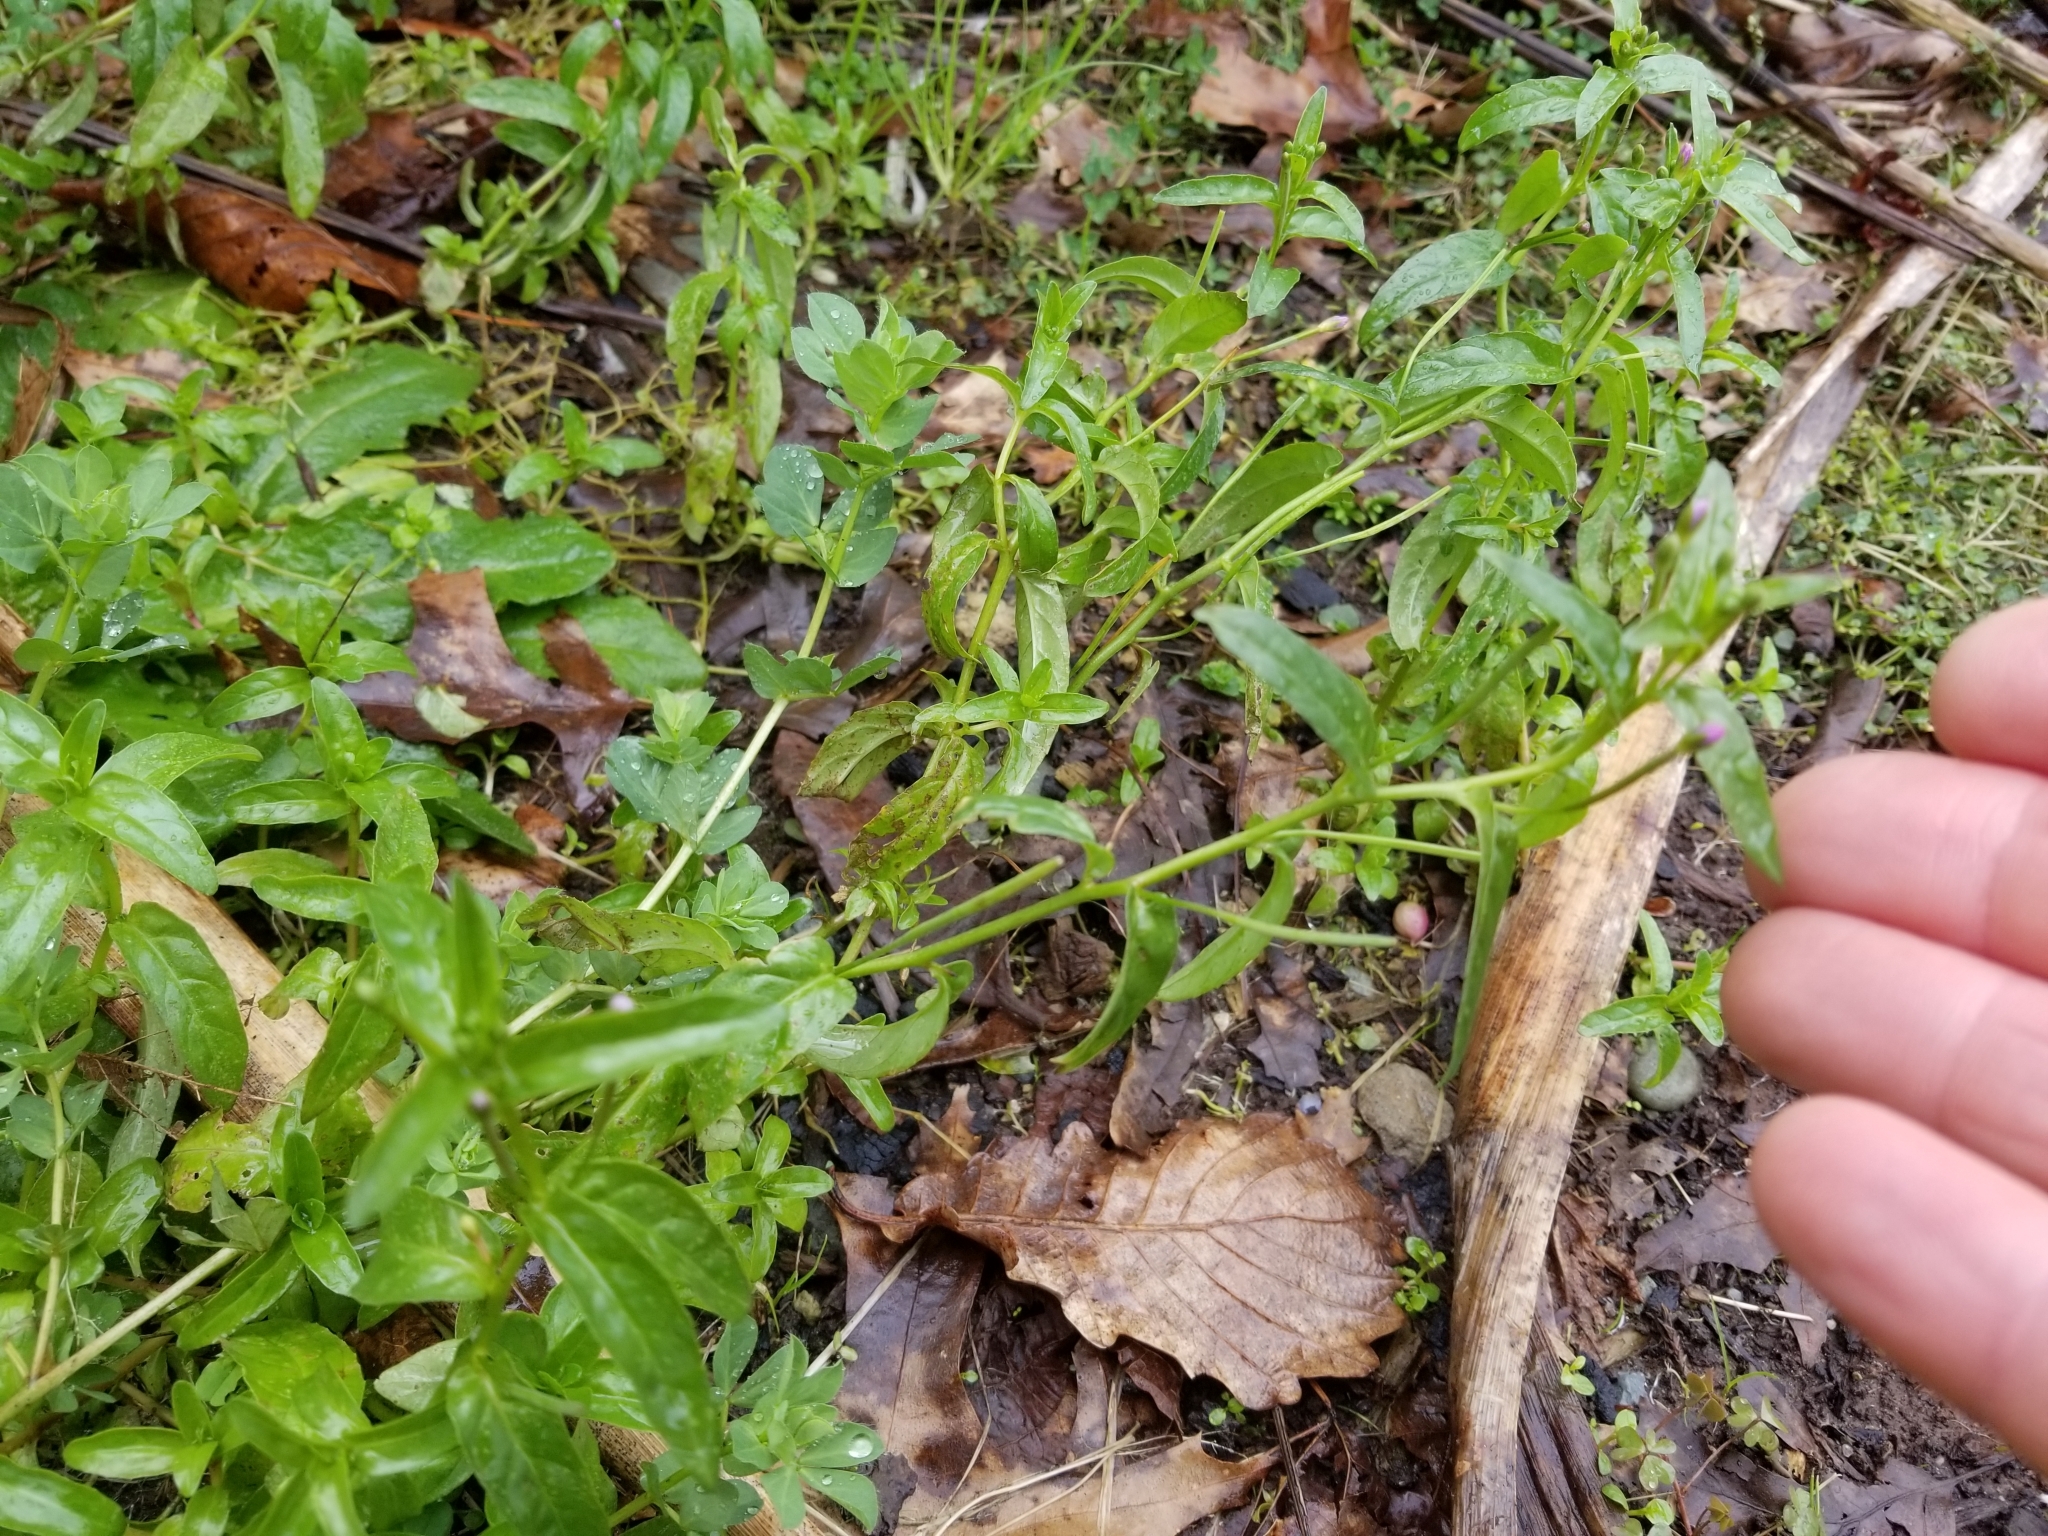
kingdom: Plantae
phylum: Tracheophyta
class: Magnoliopsida
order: Myrtales
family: Onagraceae
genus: Epilobium
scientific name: Epilobium ciliatum
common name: American willowherb
